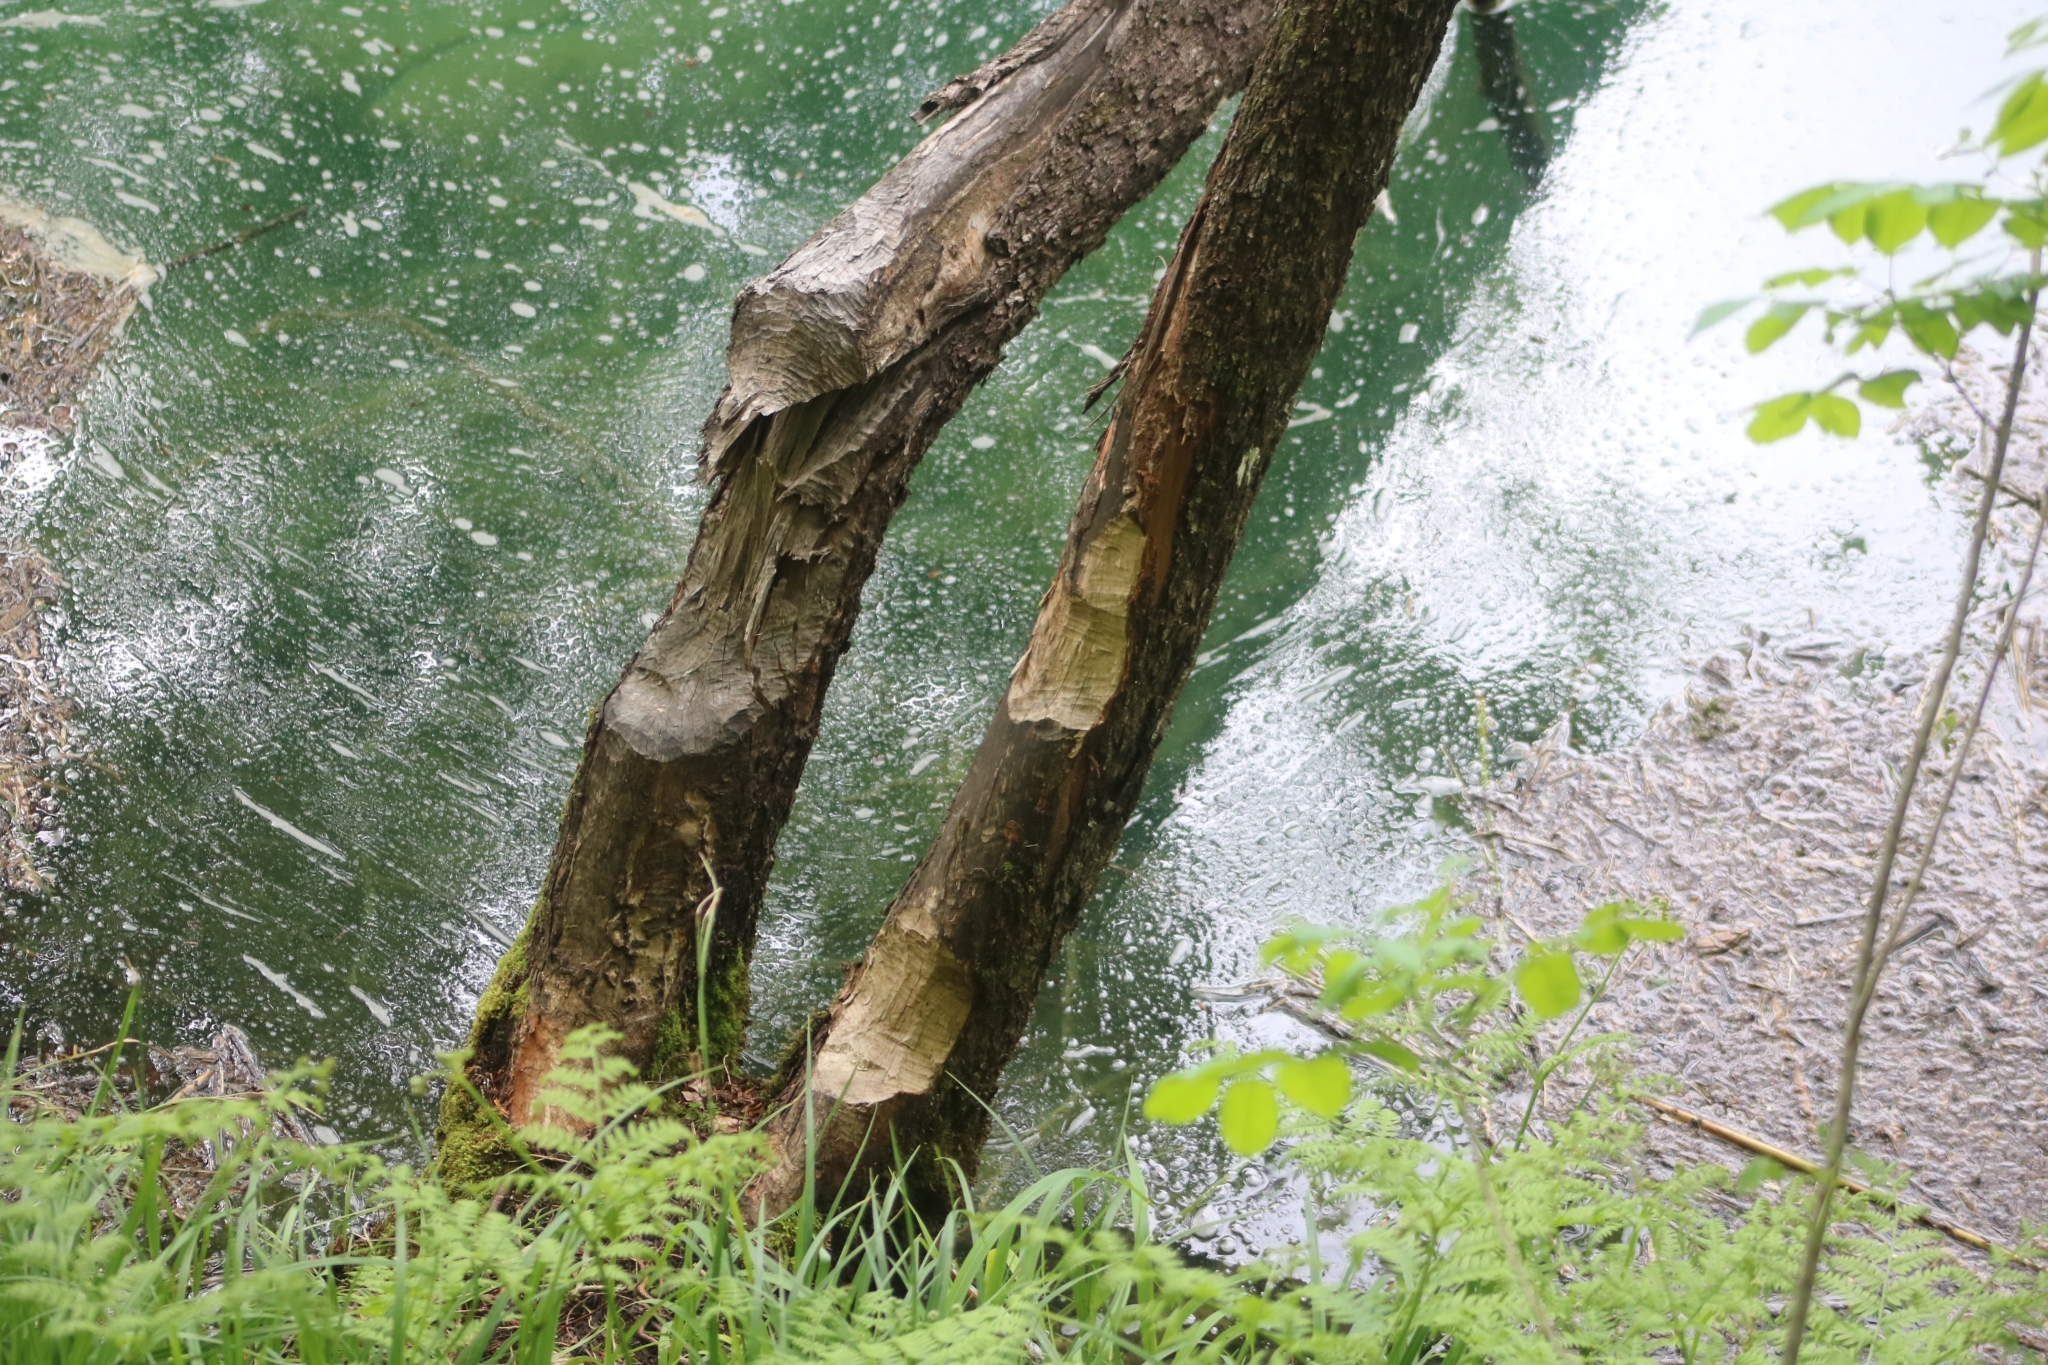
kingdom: Animalia
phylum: Chordata
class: Mammalia
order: Rodentia
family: Castoridae
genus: Castor
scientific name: Castor fiber
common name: Eurasian beaver
